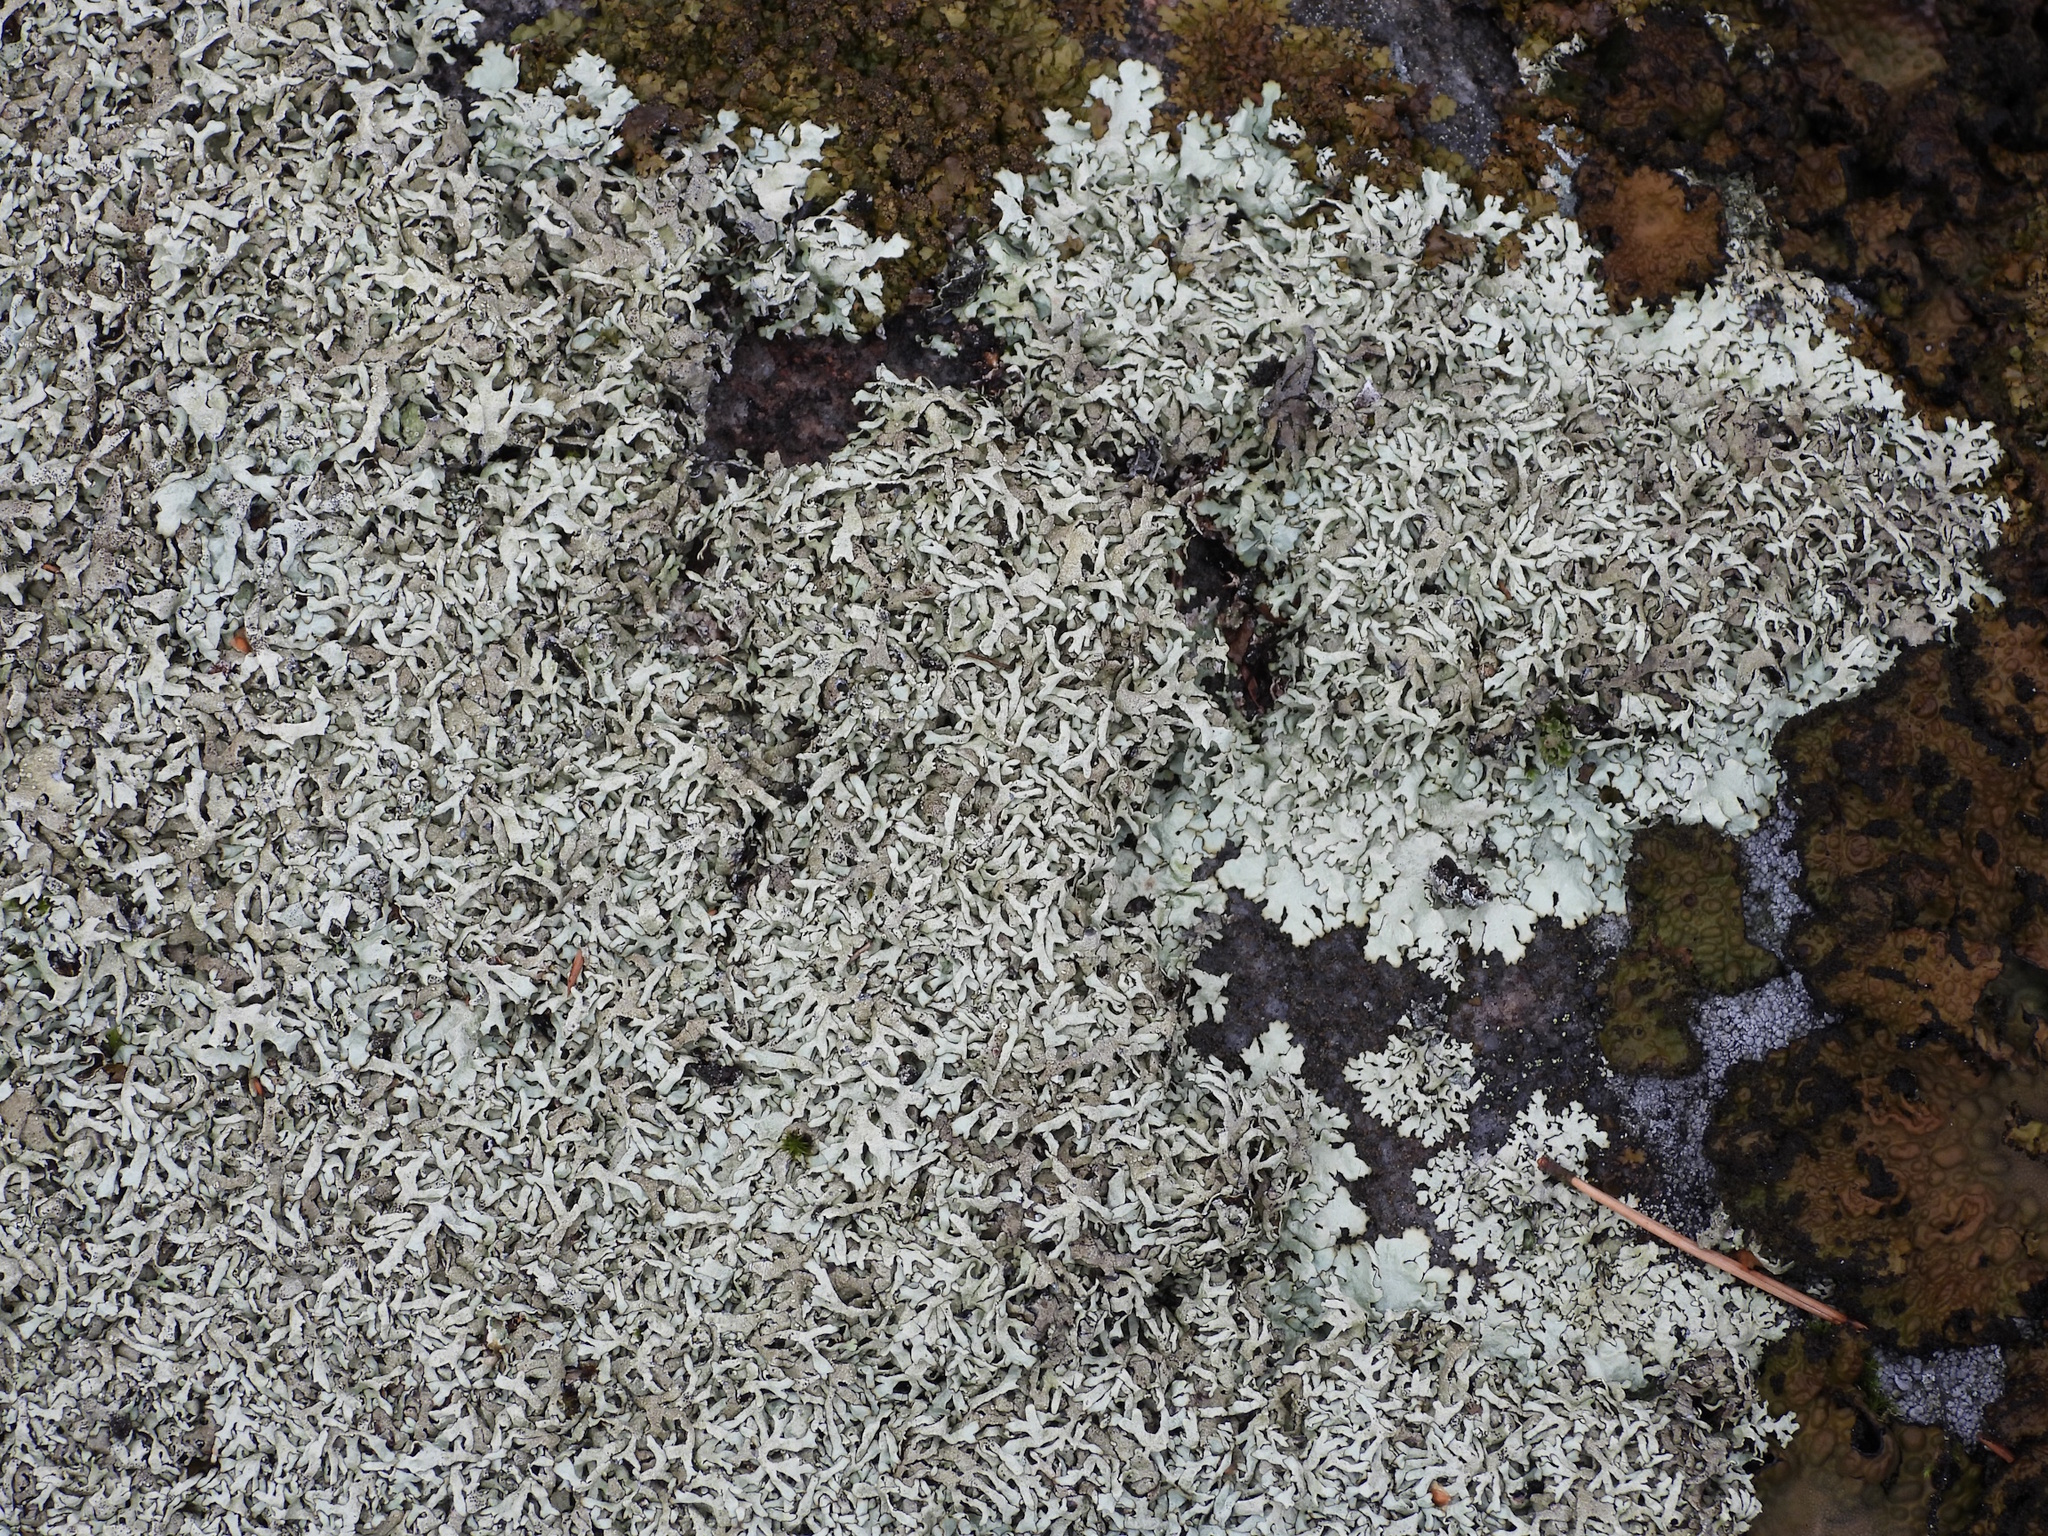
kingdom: Fungi
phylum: Ascomycota
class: Lecanoromycetes
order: Lecanorales
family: Parmeliaceae
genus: Xanthoparmelia
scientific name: Xanthoparmelia stenophylla
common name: Shingled rock shield
